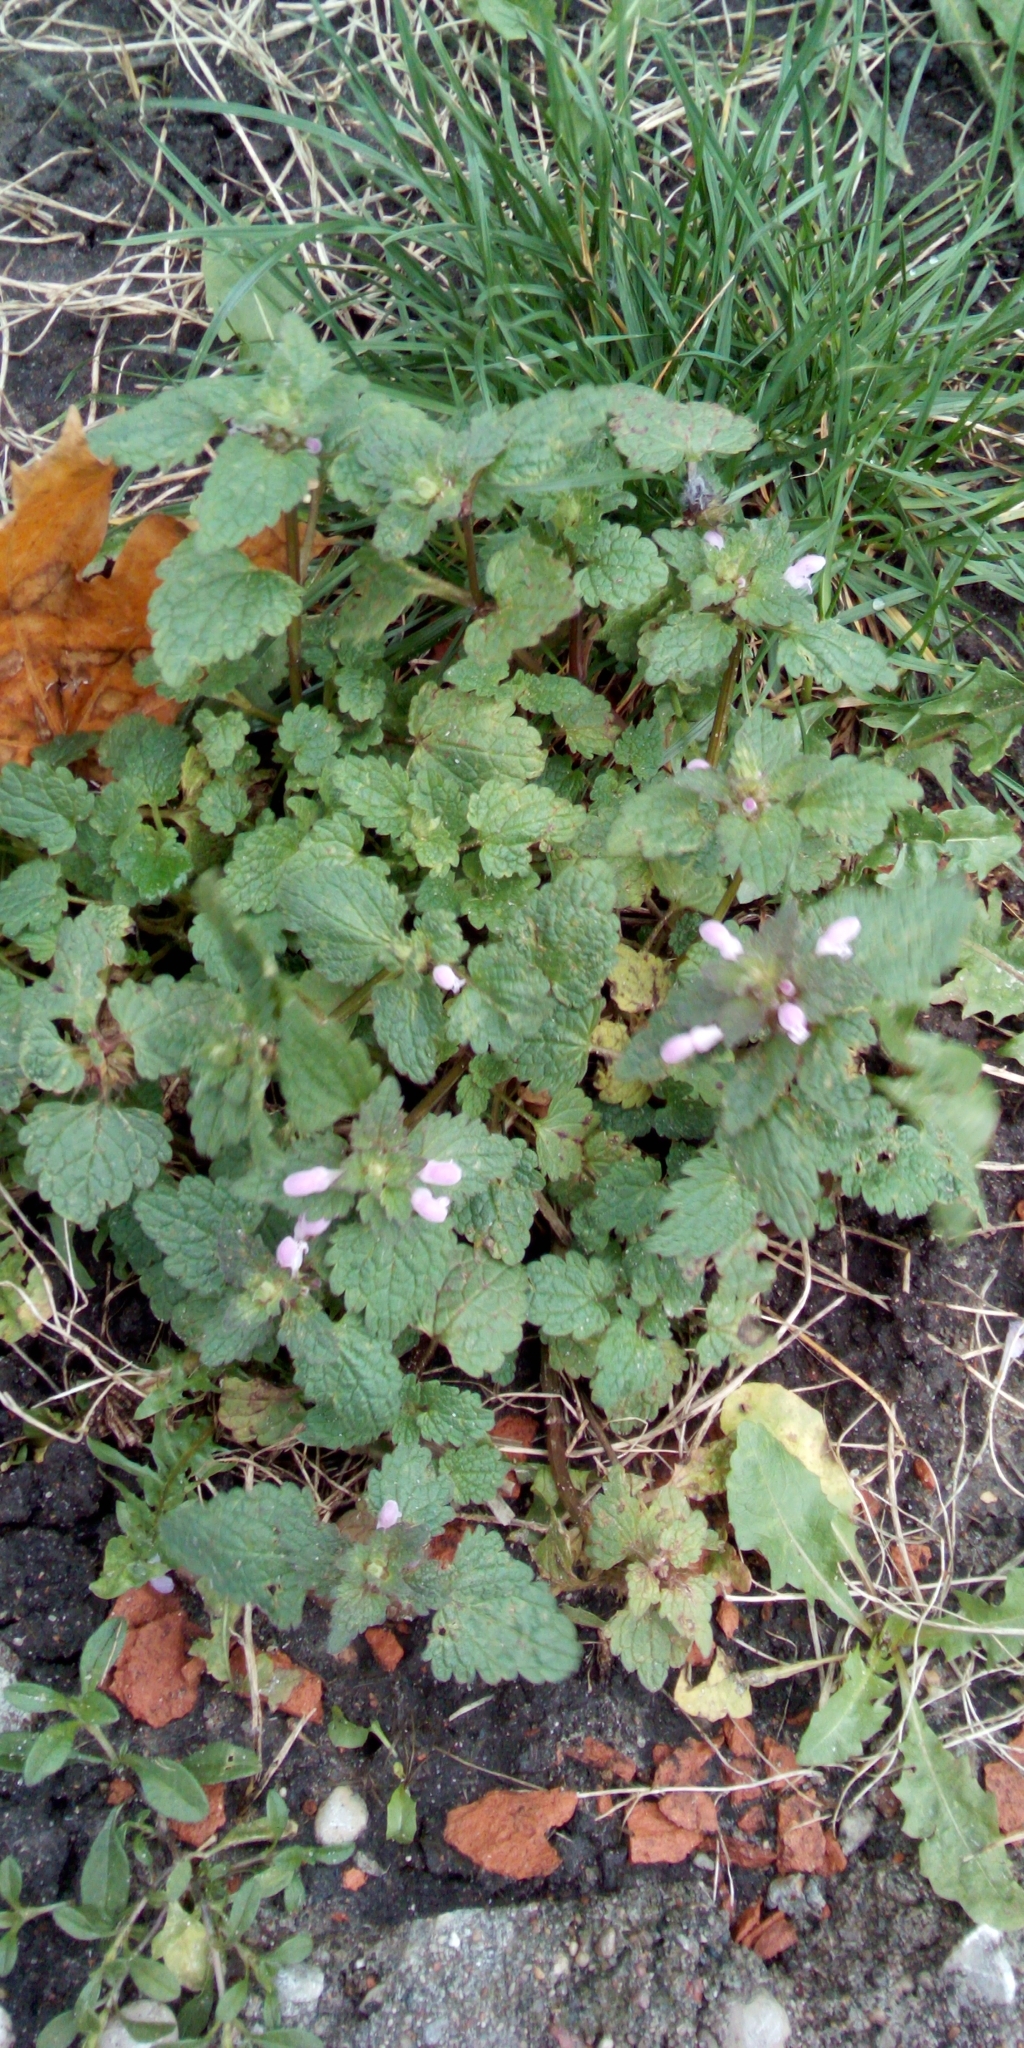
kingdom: Plantae
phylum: Tracheophyta
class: Magnoliopsida
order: Lamiales
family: Lamiaceae
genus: Lamium
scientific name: Lamium purpureum
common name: Red dead-nettle
